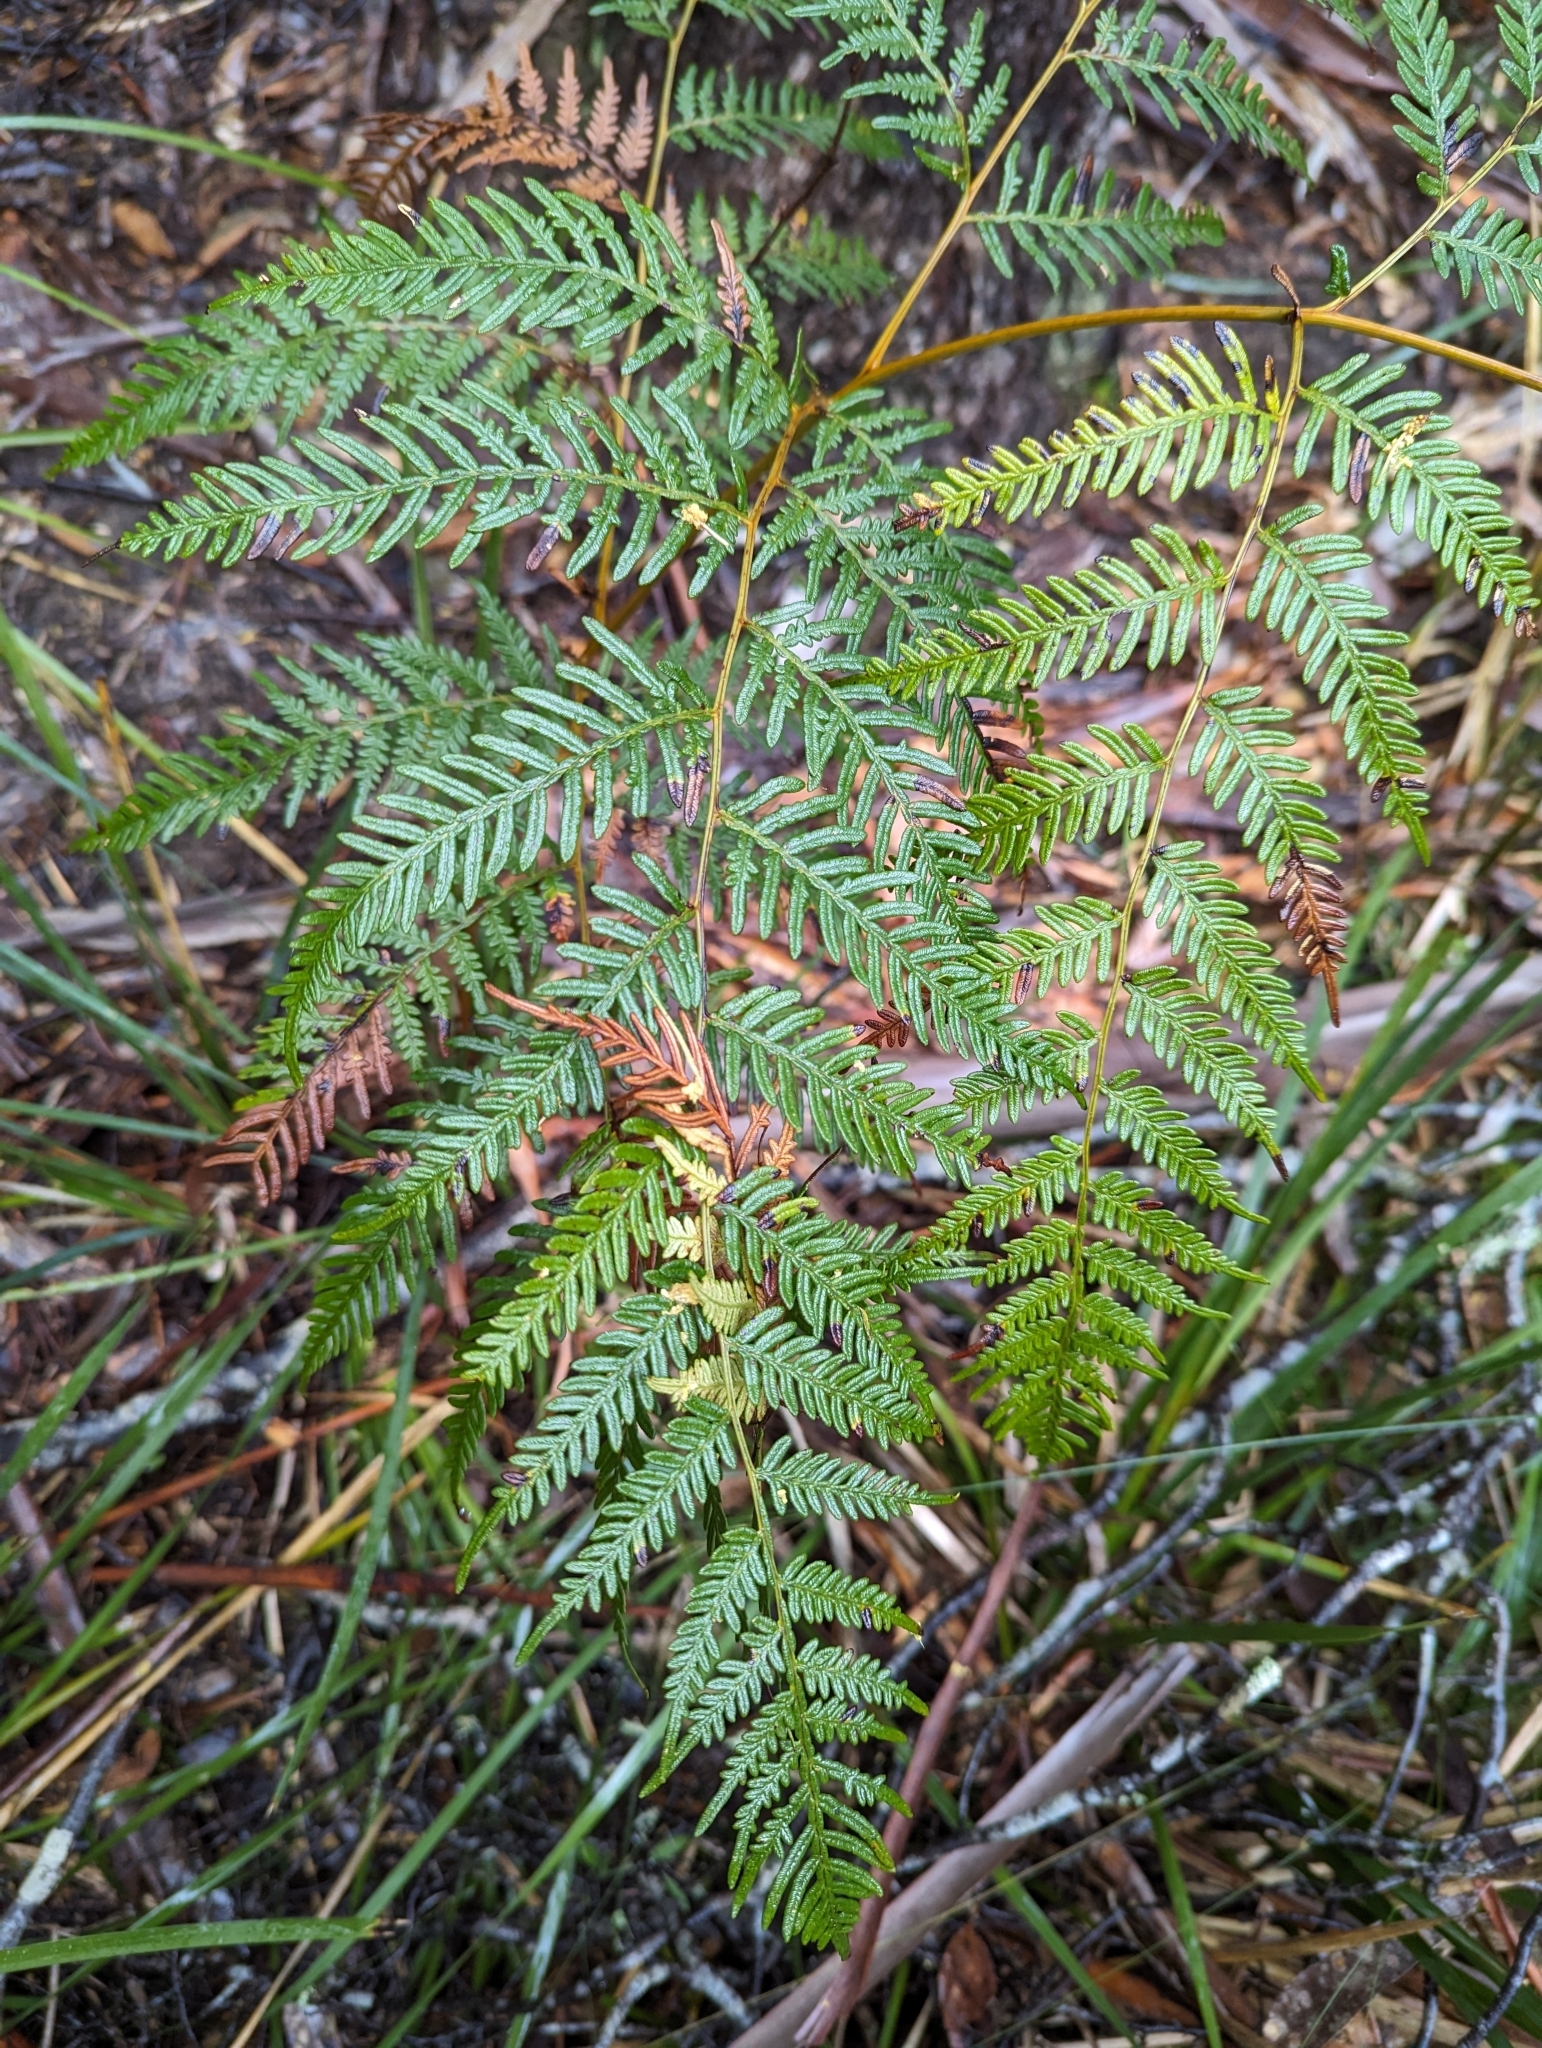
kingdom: Plantae
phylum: Tracheophyta
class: Polypodiopsida
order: Polypodiales
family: Dennstaedtiaceae
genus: Pteridium
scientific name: Pteridium esculentum
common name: Bracken fern
